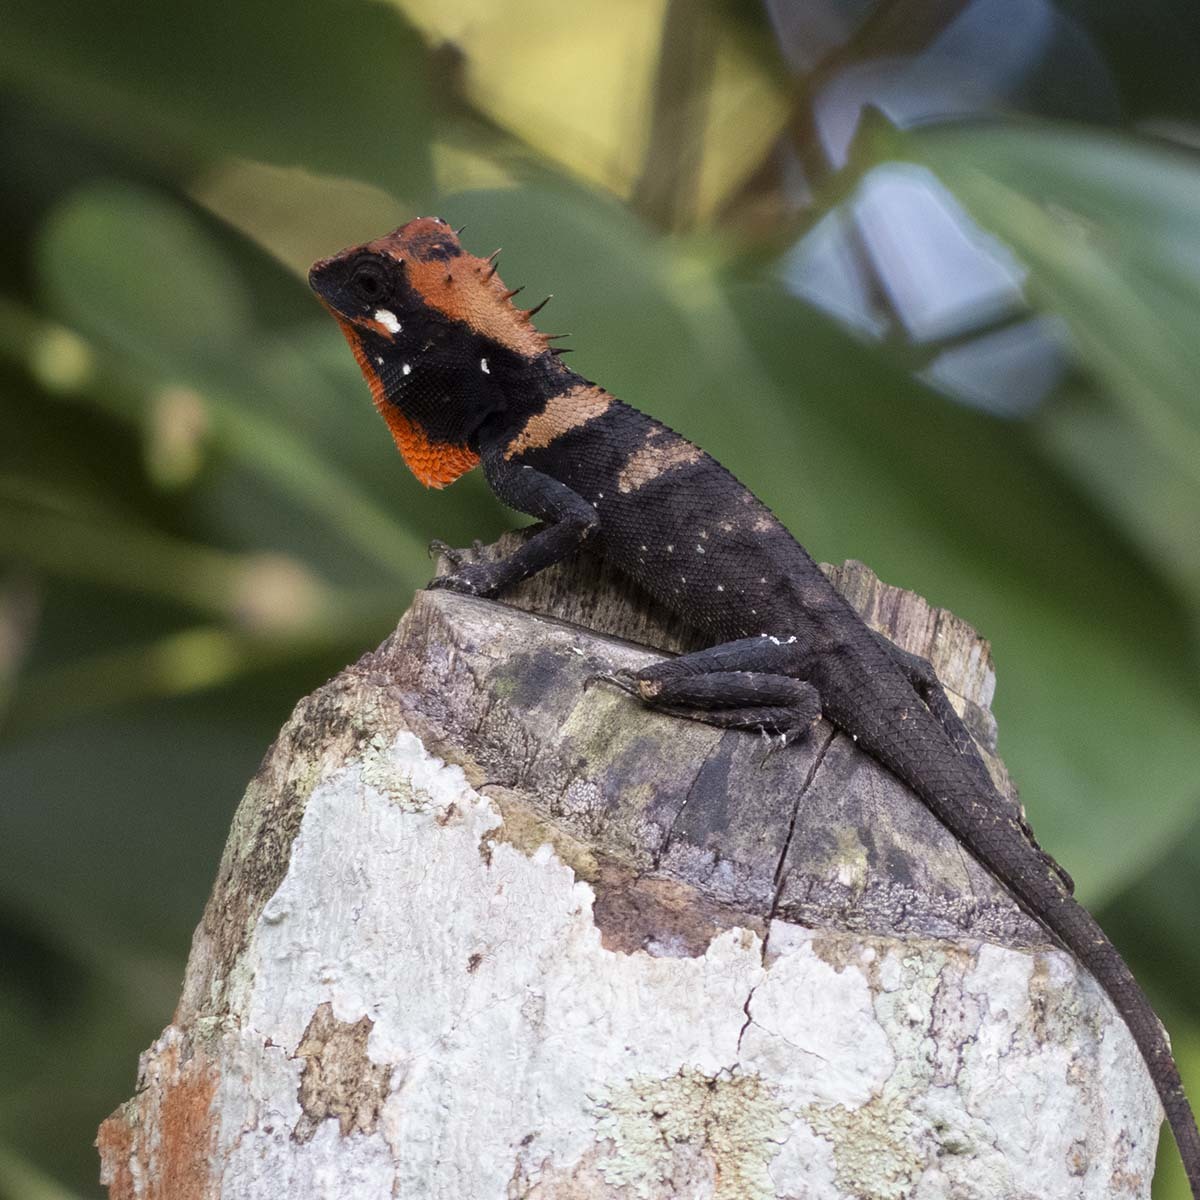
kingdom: Animalia
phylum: Chordata
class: Squamata
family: Agamidae
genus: Monilesaurus
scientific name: Monilesaurus ellioti
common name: Elliot's forest lizard
